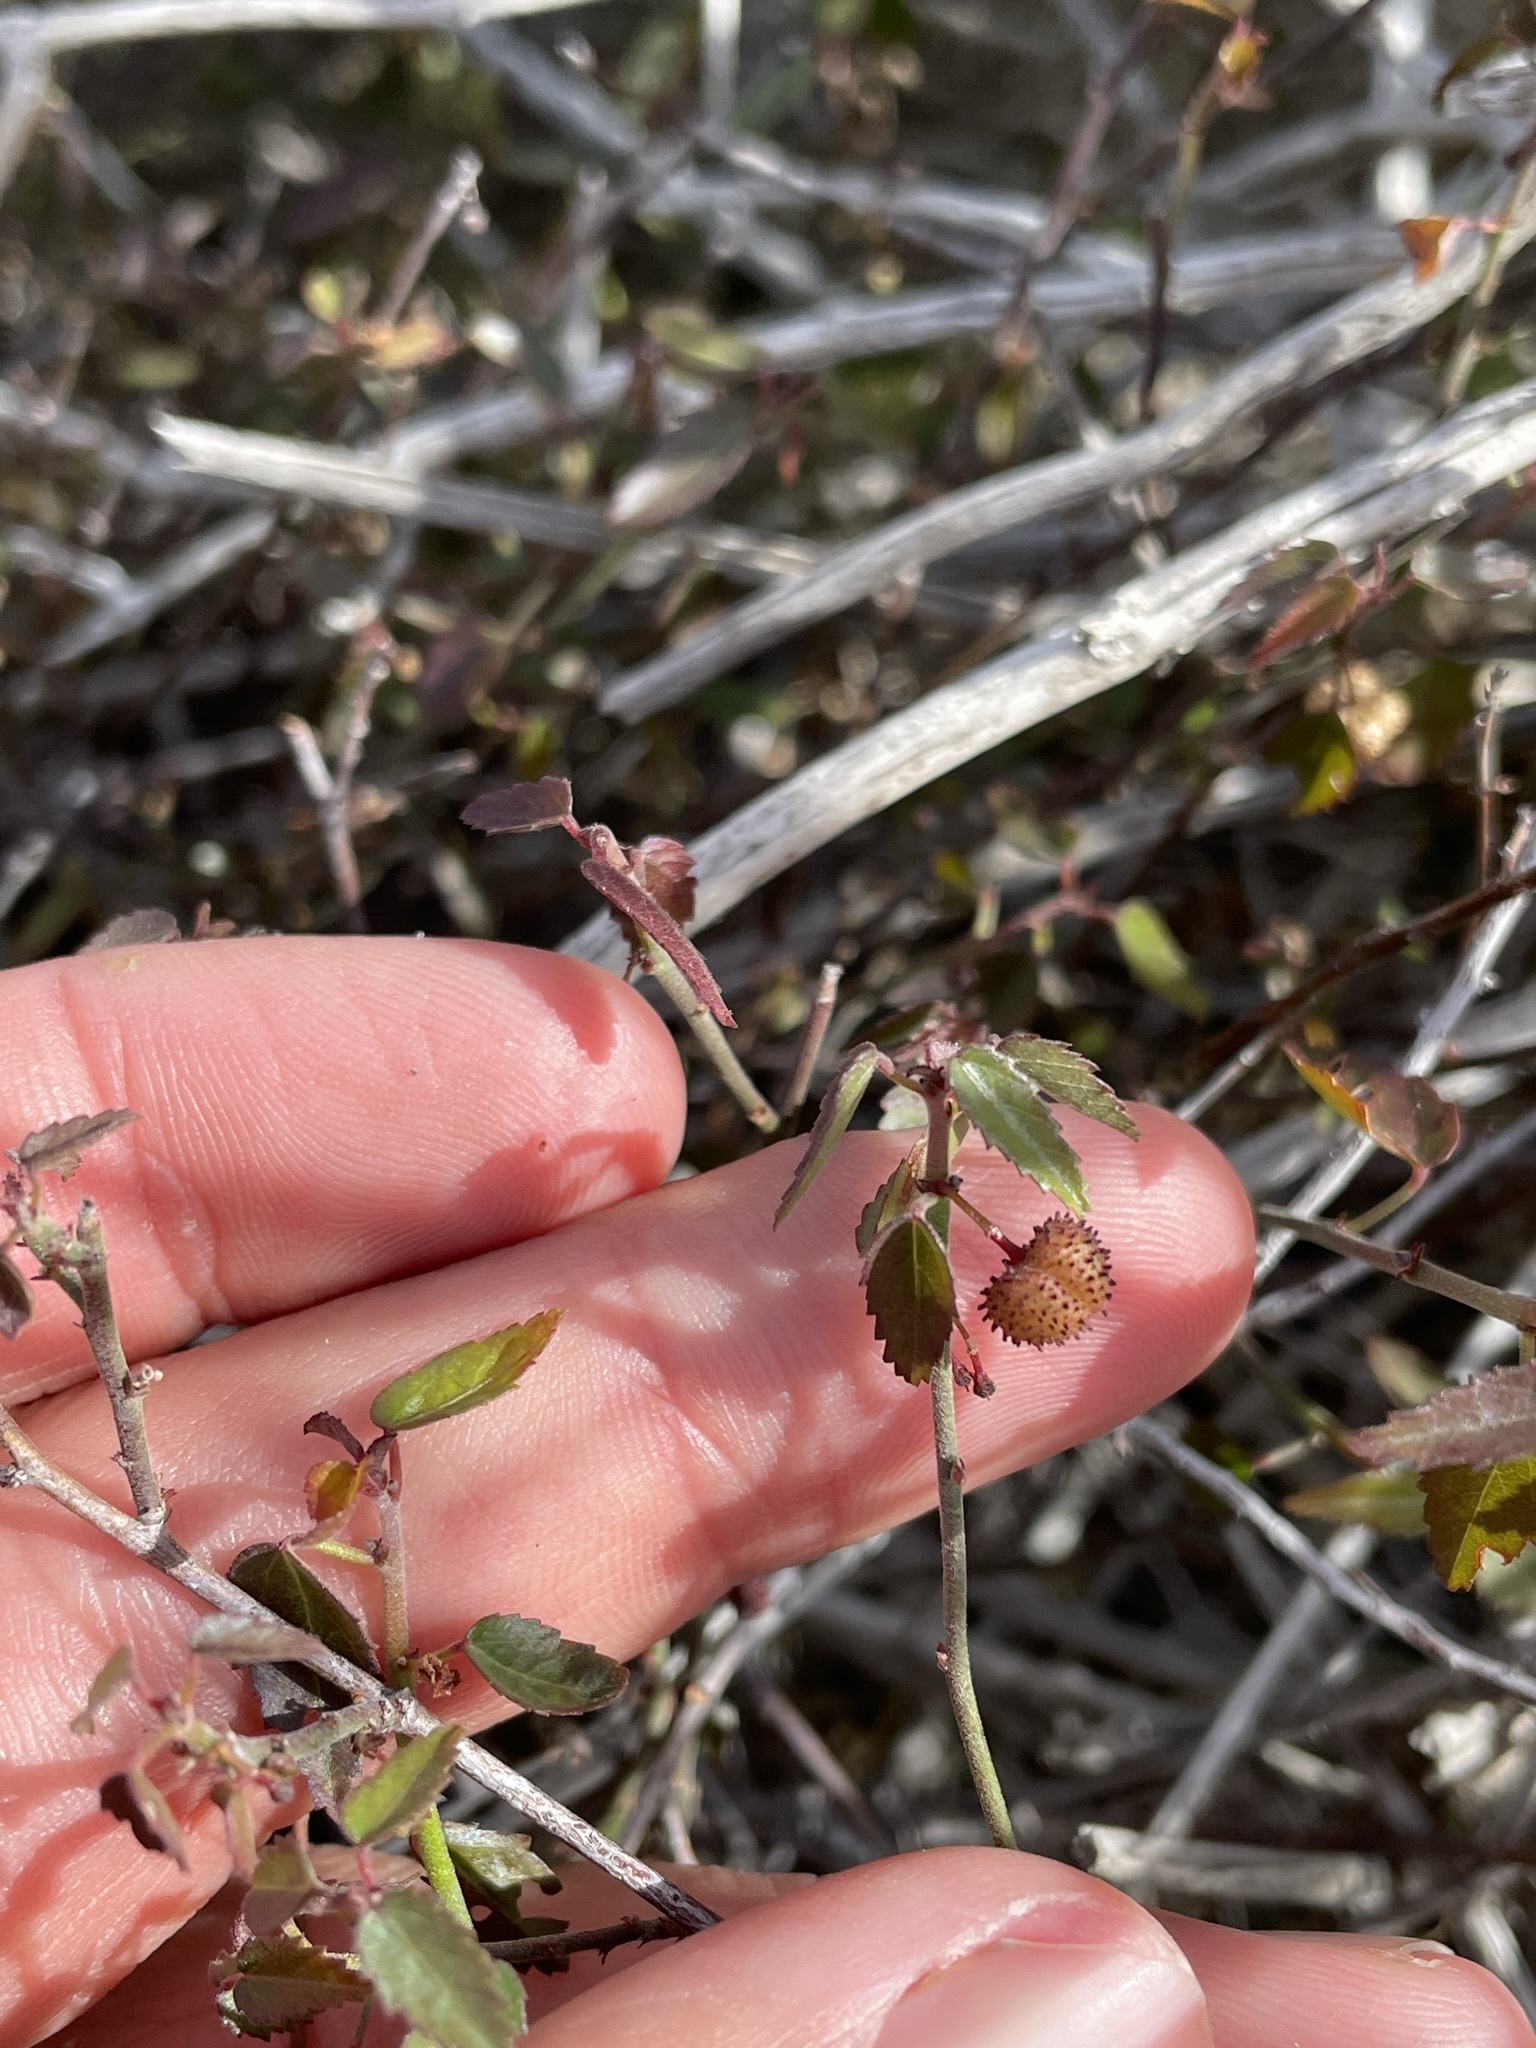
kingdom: Plantae
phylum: Tracheophyta
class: Magnoliopsida
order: Malvales
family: Malvaceae
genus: Ayenia
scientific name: Ayenia compacta
